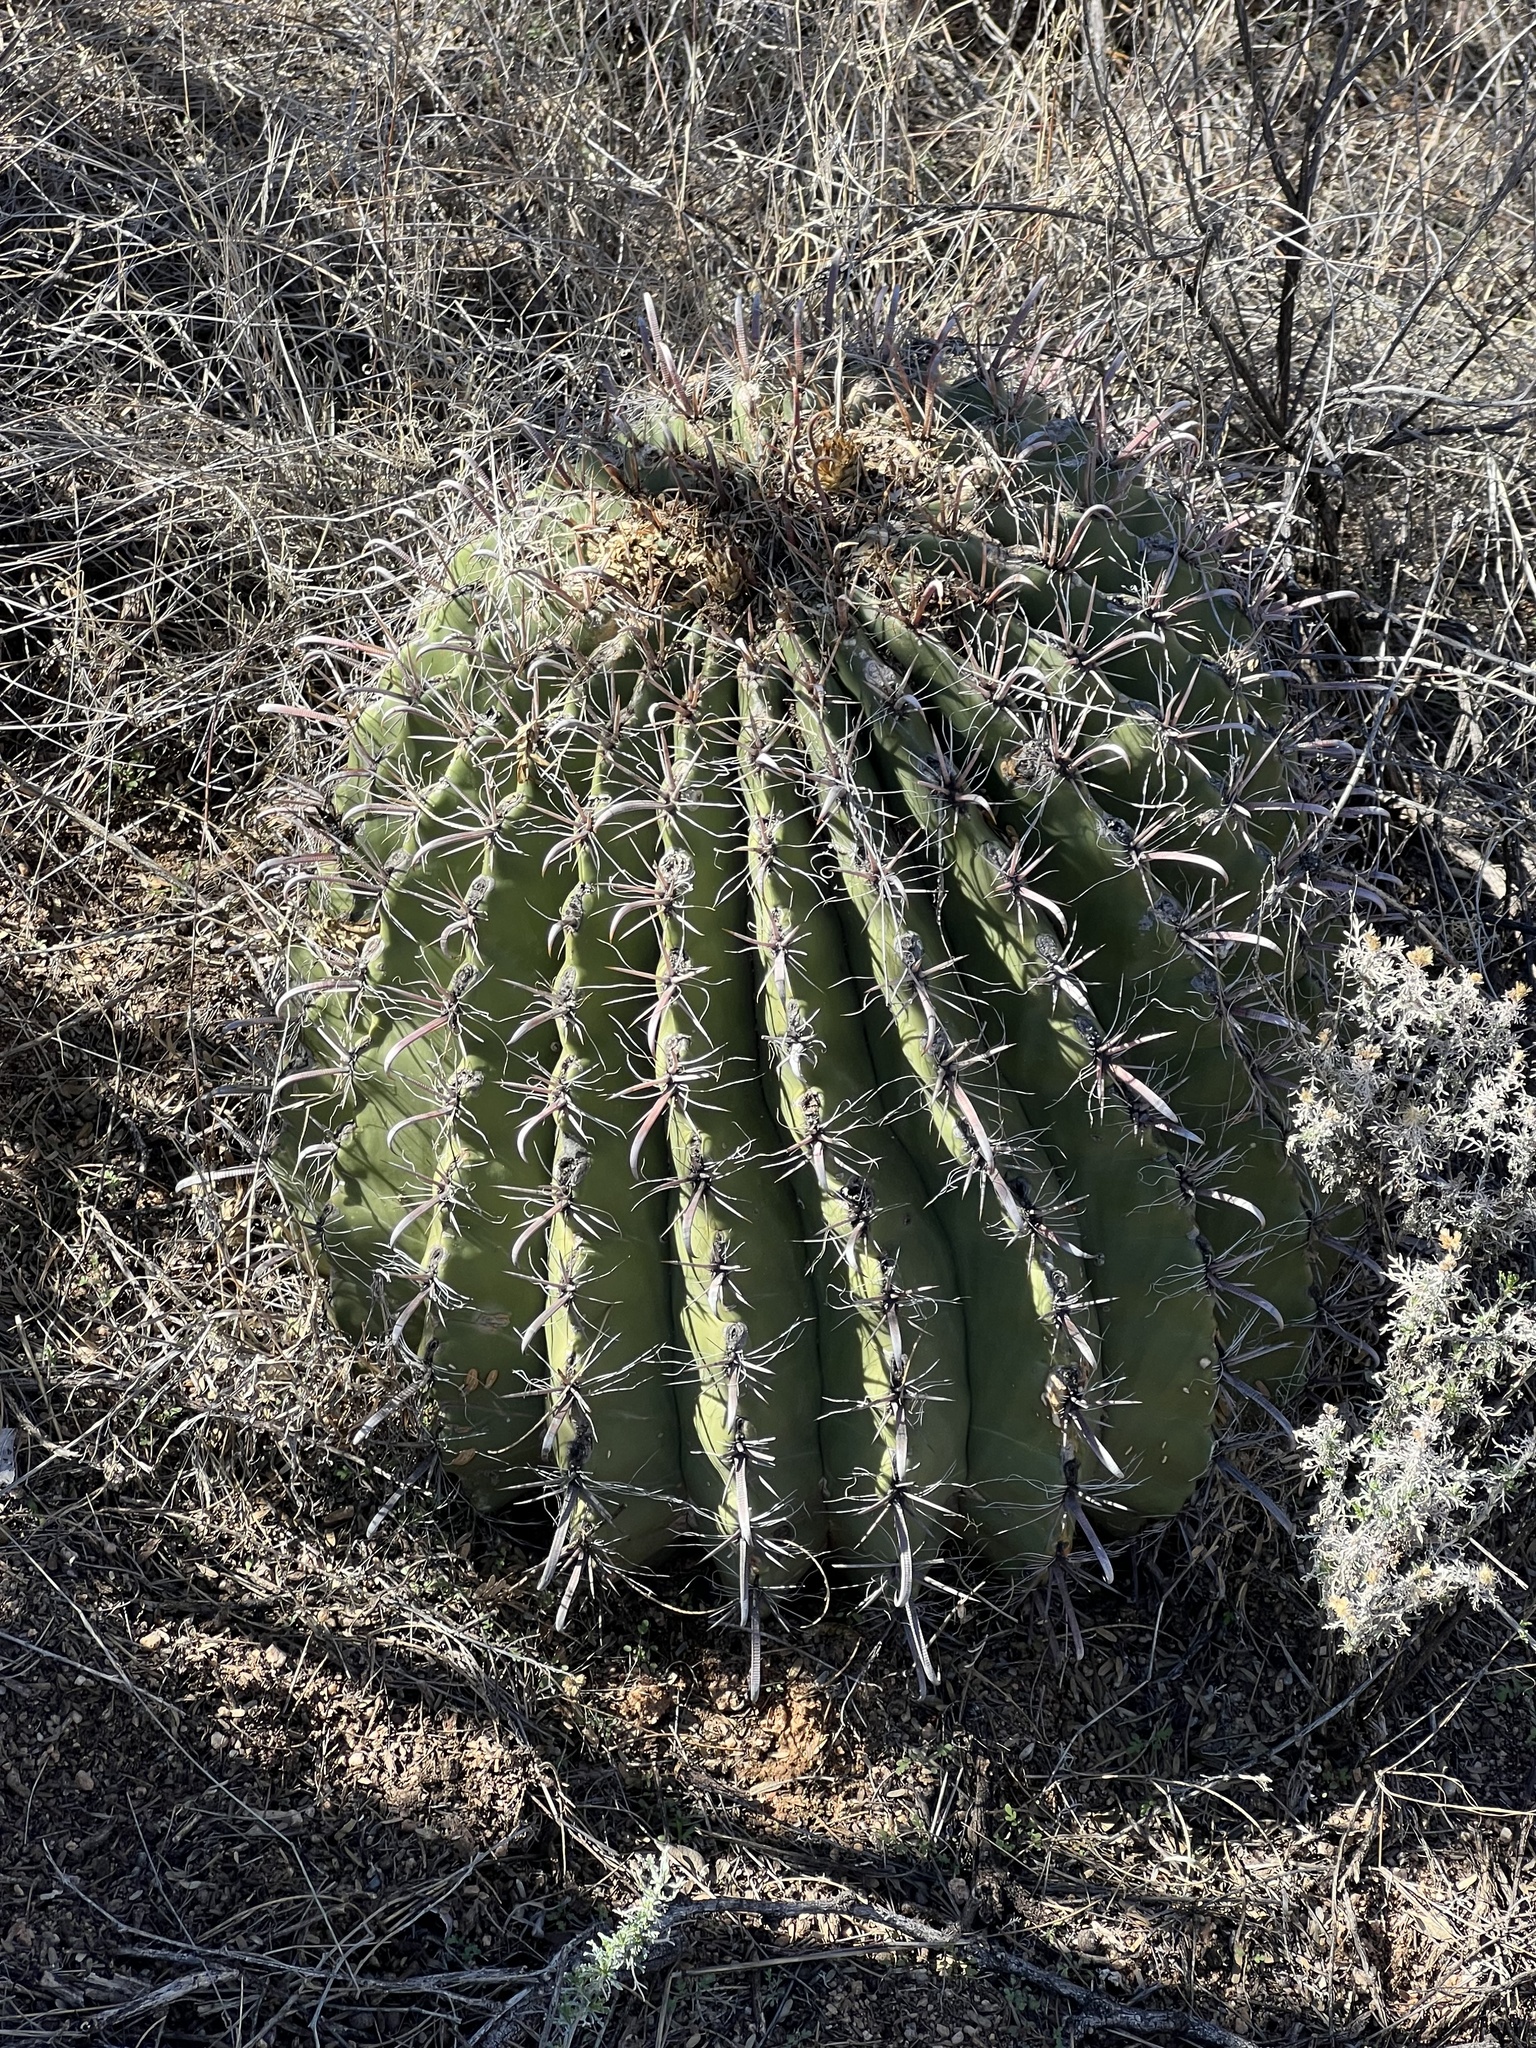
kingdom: Plantae
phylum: Tracheophyta
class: Magnoliopsida
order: Caryophyllales
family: Cactaceae
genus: Ferocactus
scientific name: Ferocactus wislizeni
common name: Candy barrel cactus
